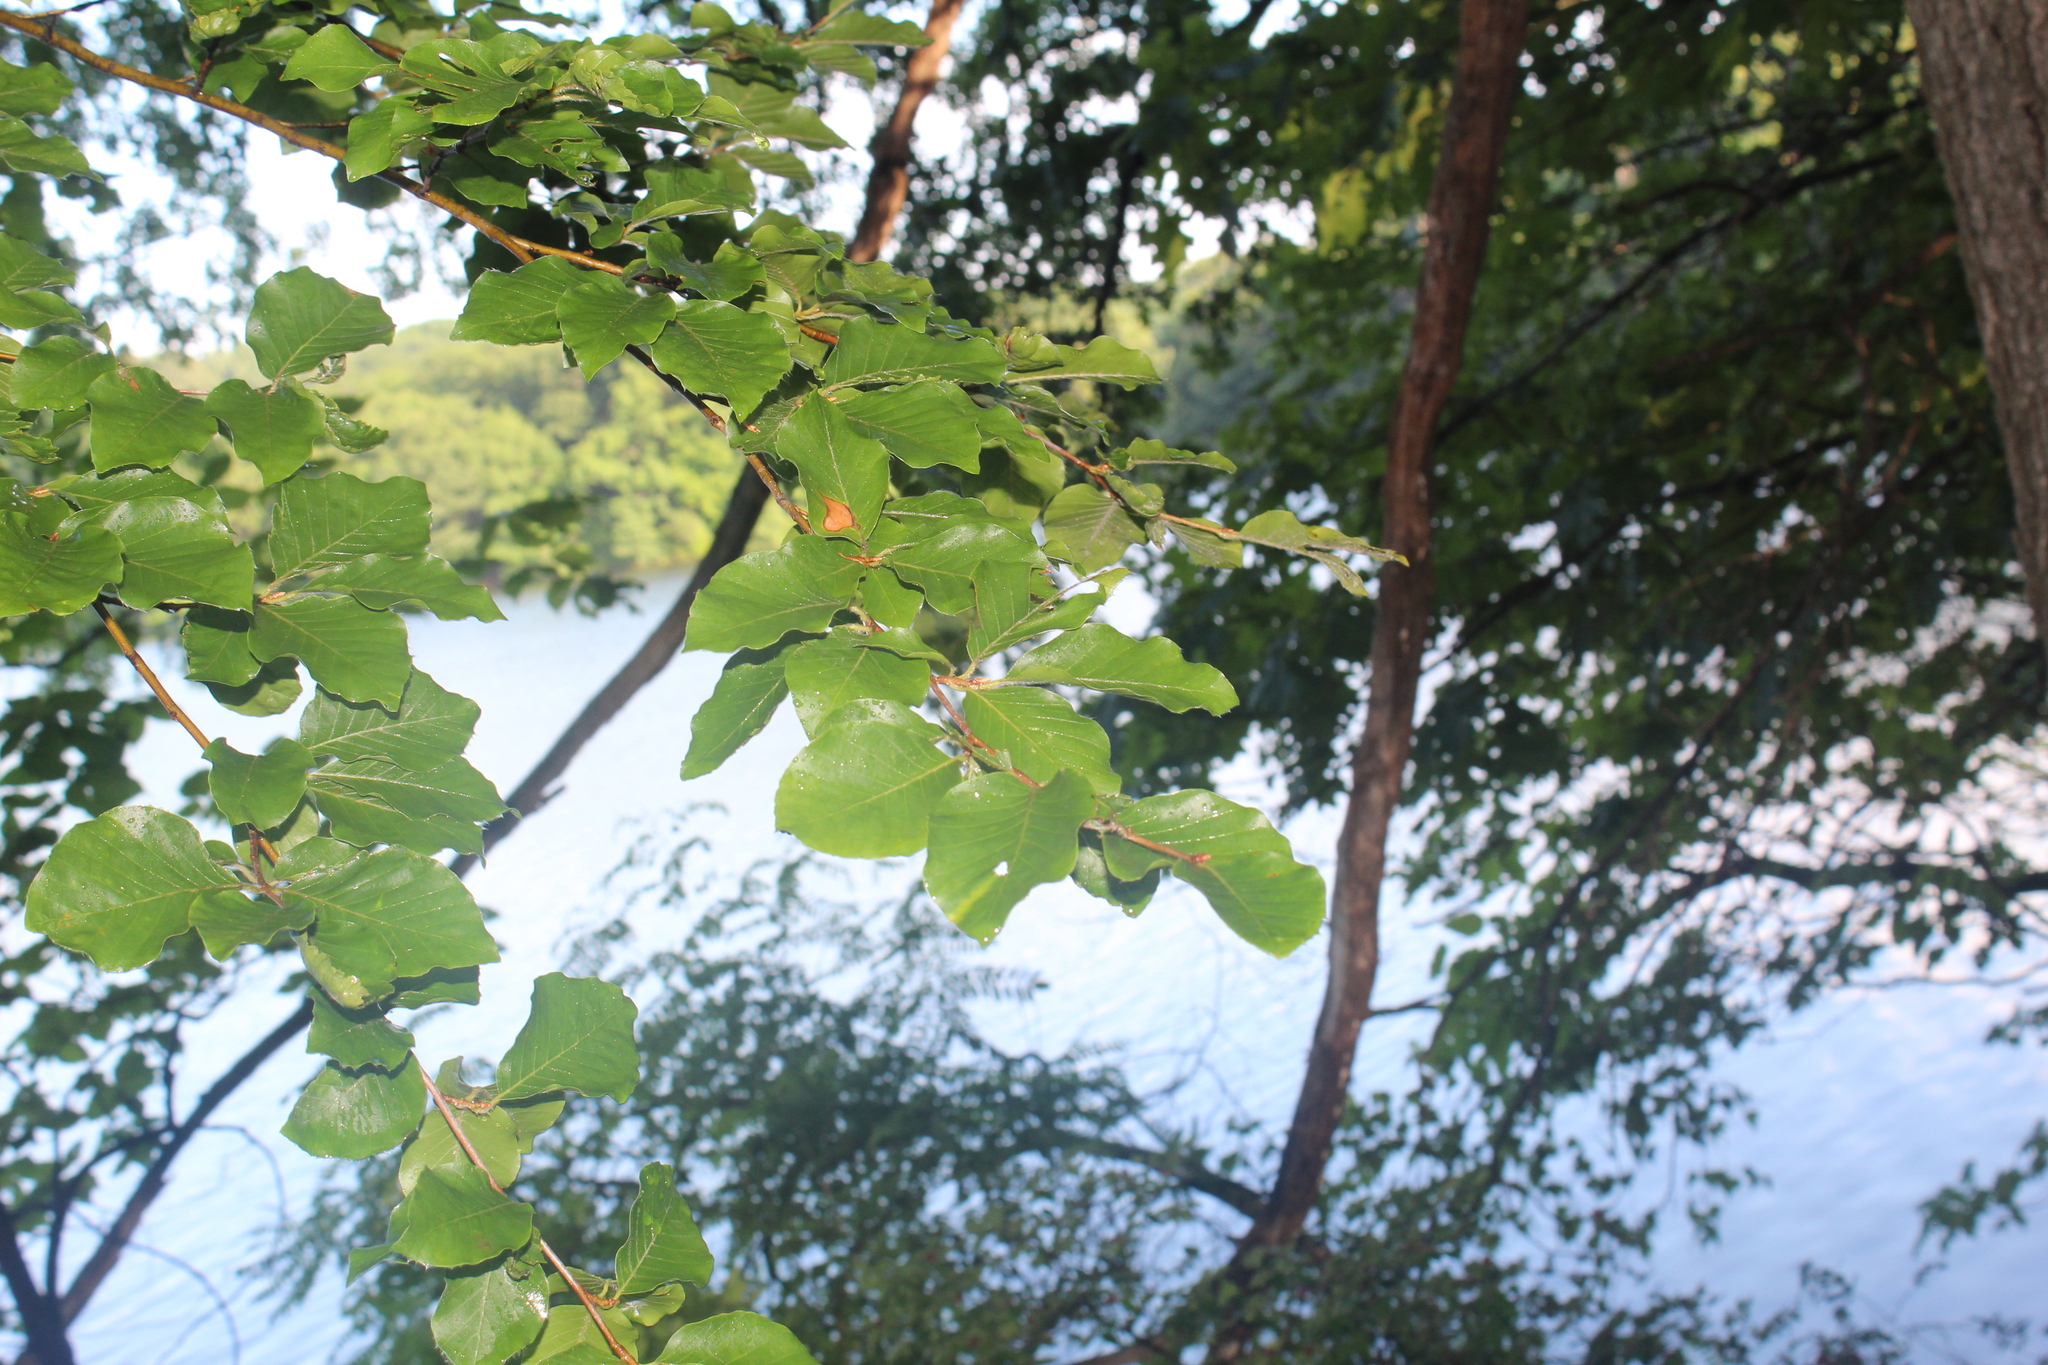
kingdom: Plantae
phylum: Tracheophyta
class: Magnoliopsida
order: Fagales
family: Fagaceae
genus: Fagus
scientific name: Fagus sylvatica
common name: Beech
